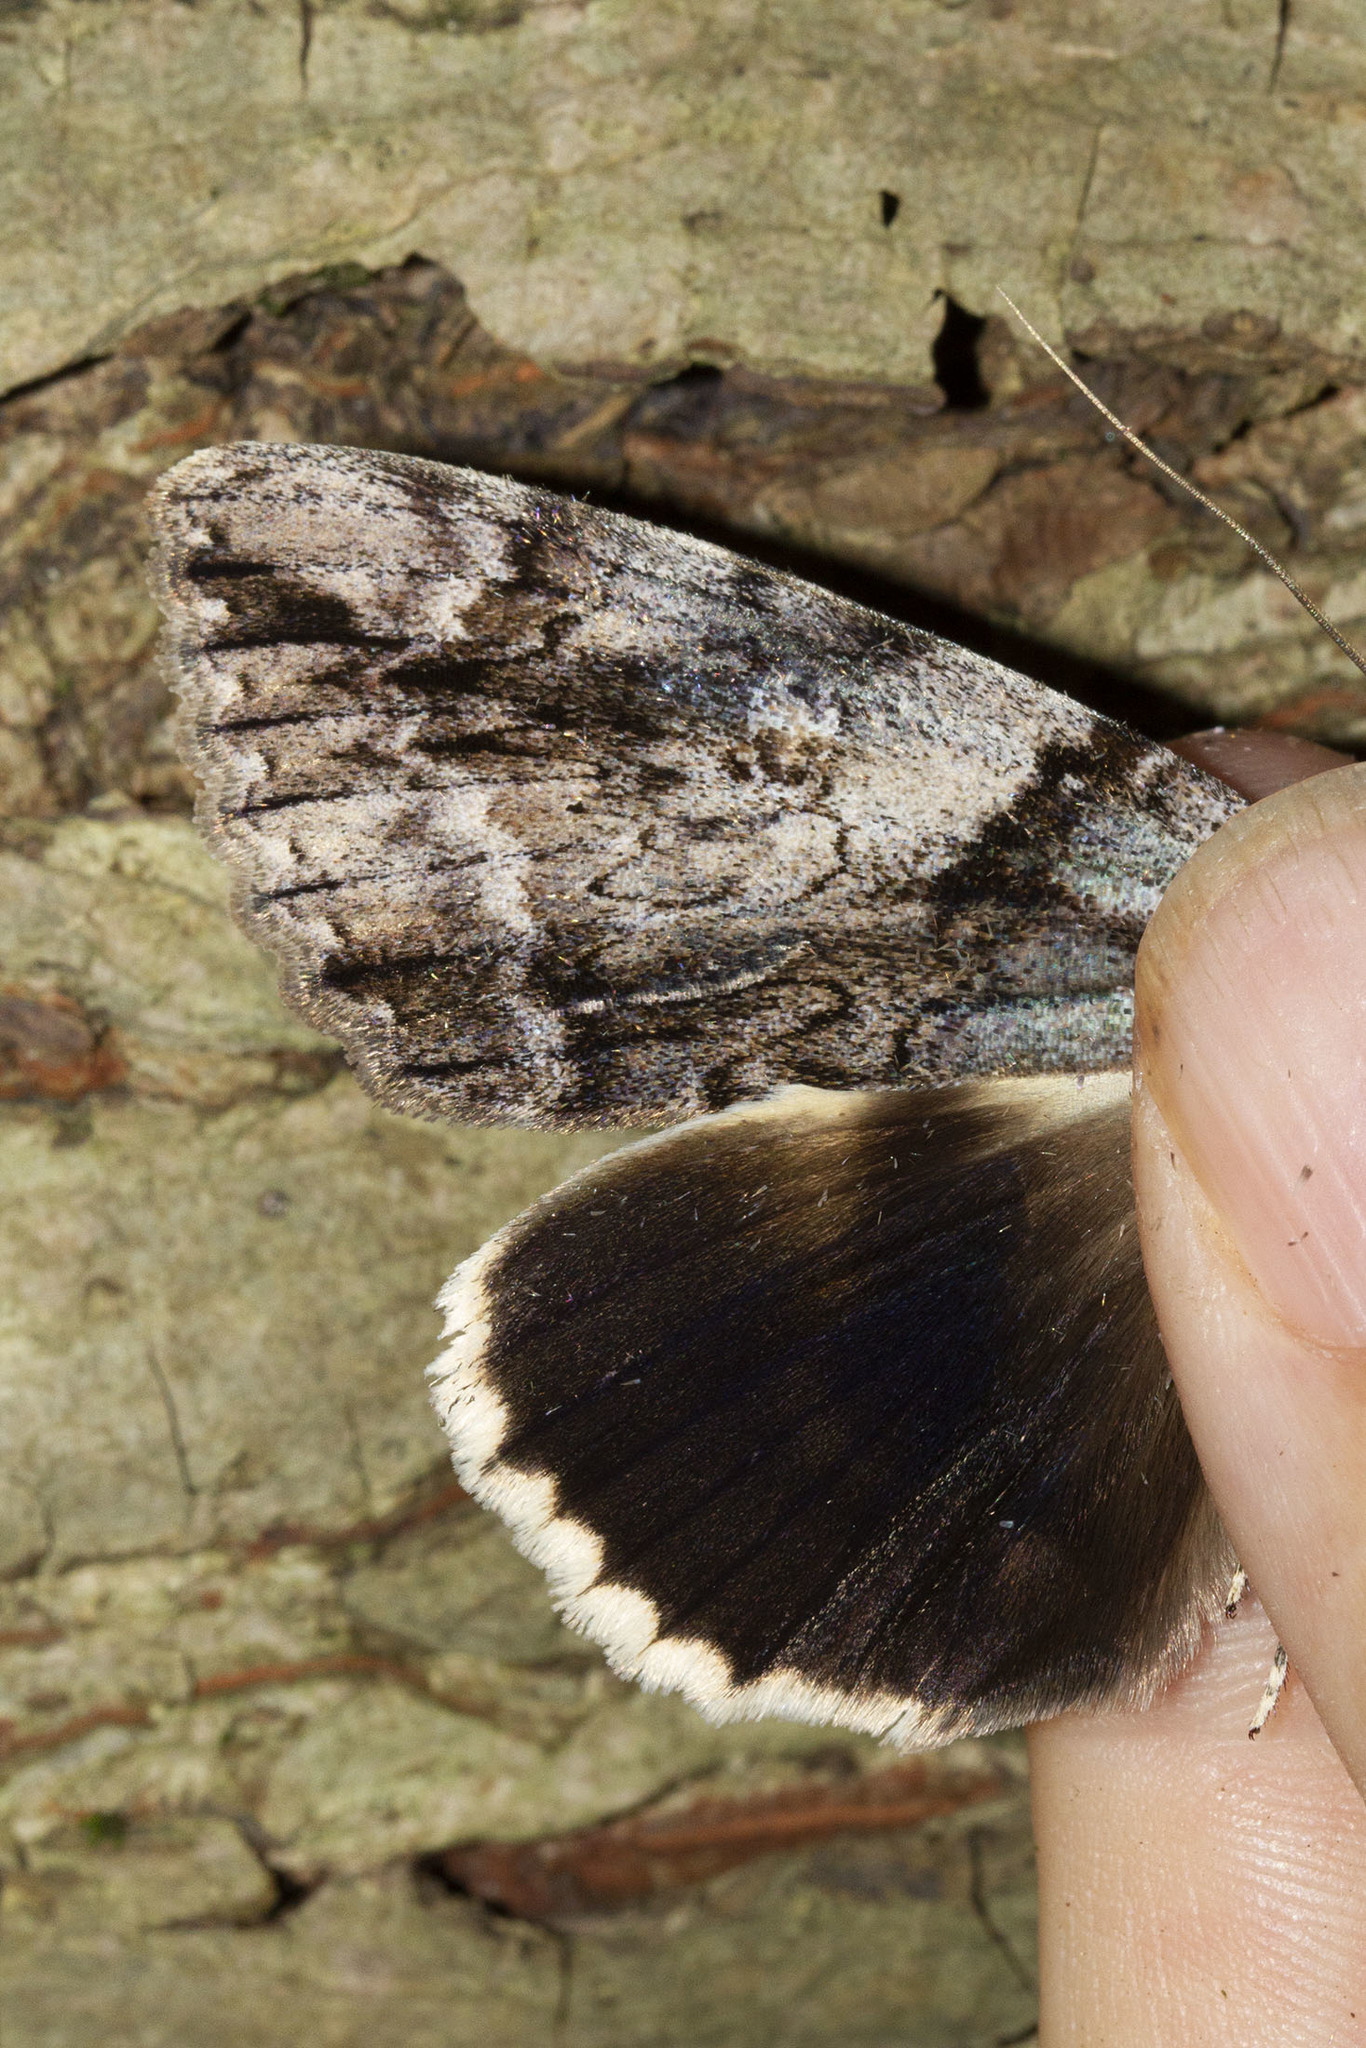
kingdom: Animalia
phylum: Arthropoda
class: Insecta
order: Lepidoptera
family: Erebidae
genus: Catocala
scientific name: Catocala vidua
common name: The widow
